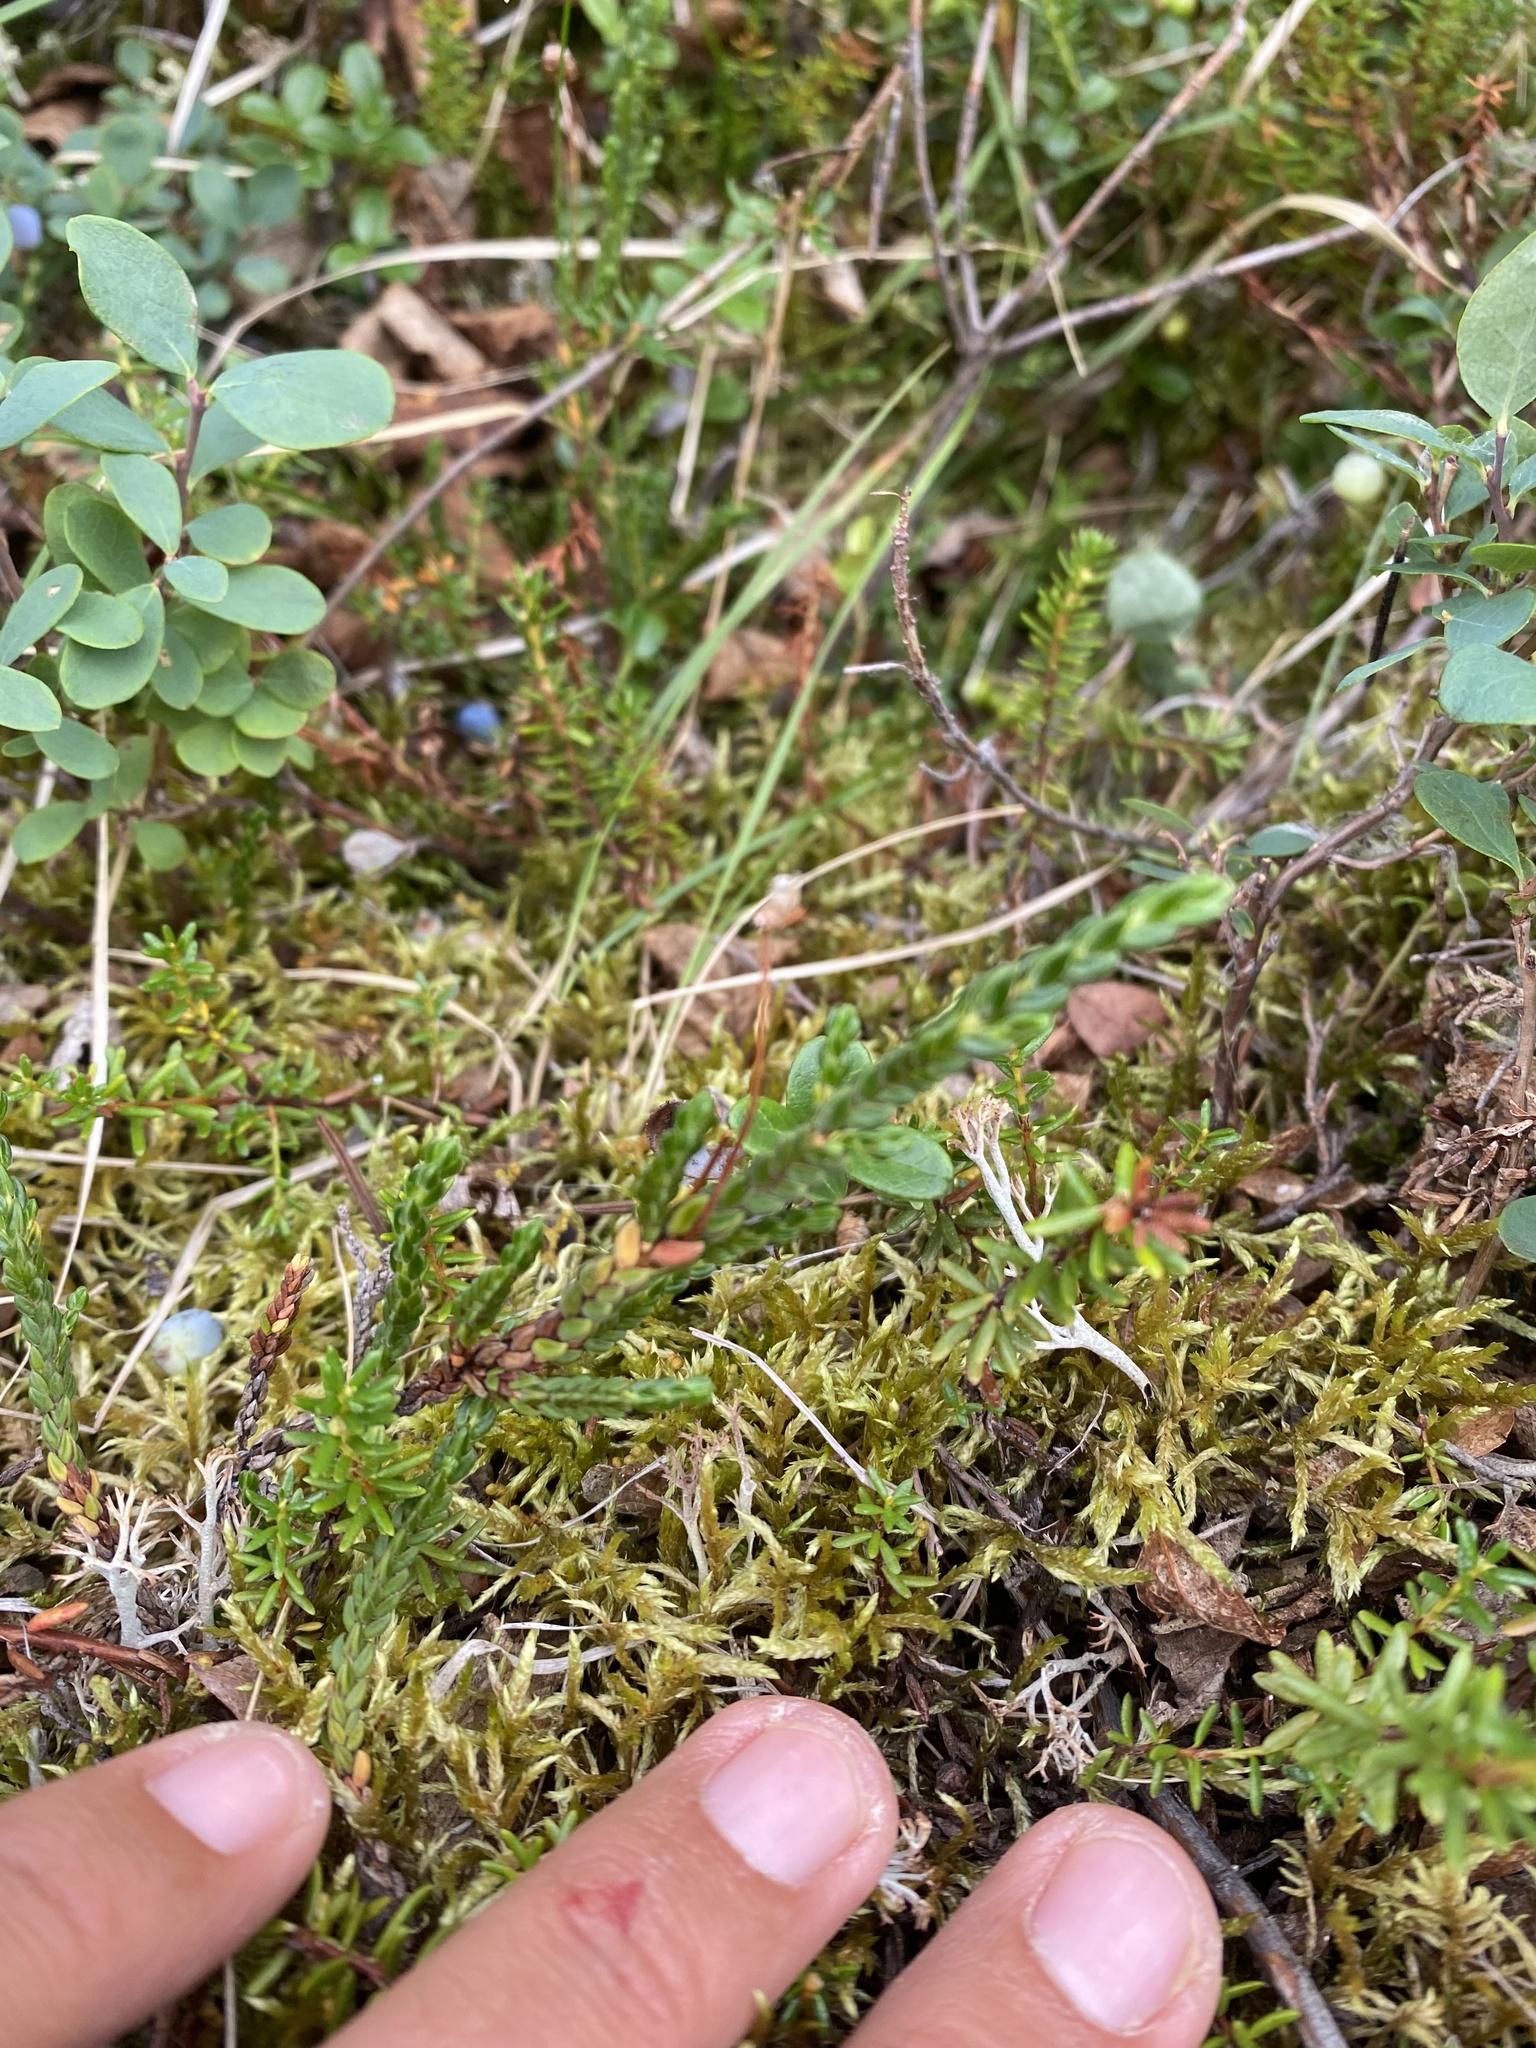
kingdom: Plantae
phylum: Tracheophyta
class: Magnoliopsida
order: Ericales
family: Ericaceae
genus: Cassiope
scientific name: Cassiope tetragona
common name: Arctic bell heather
